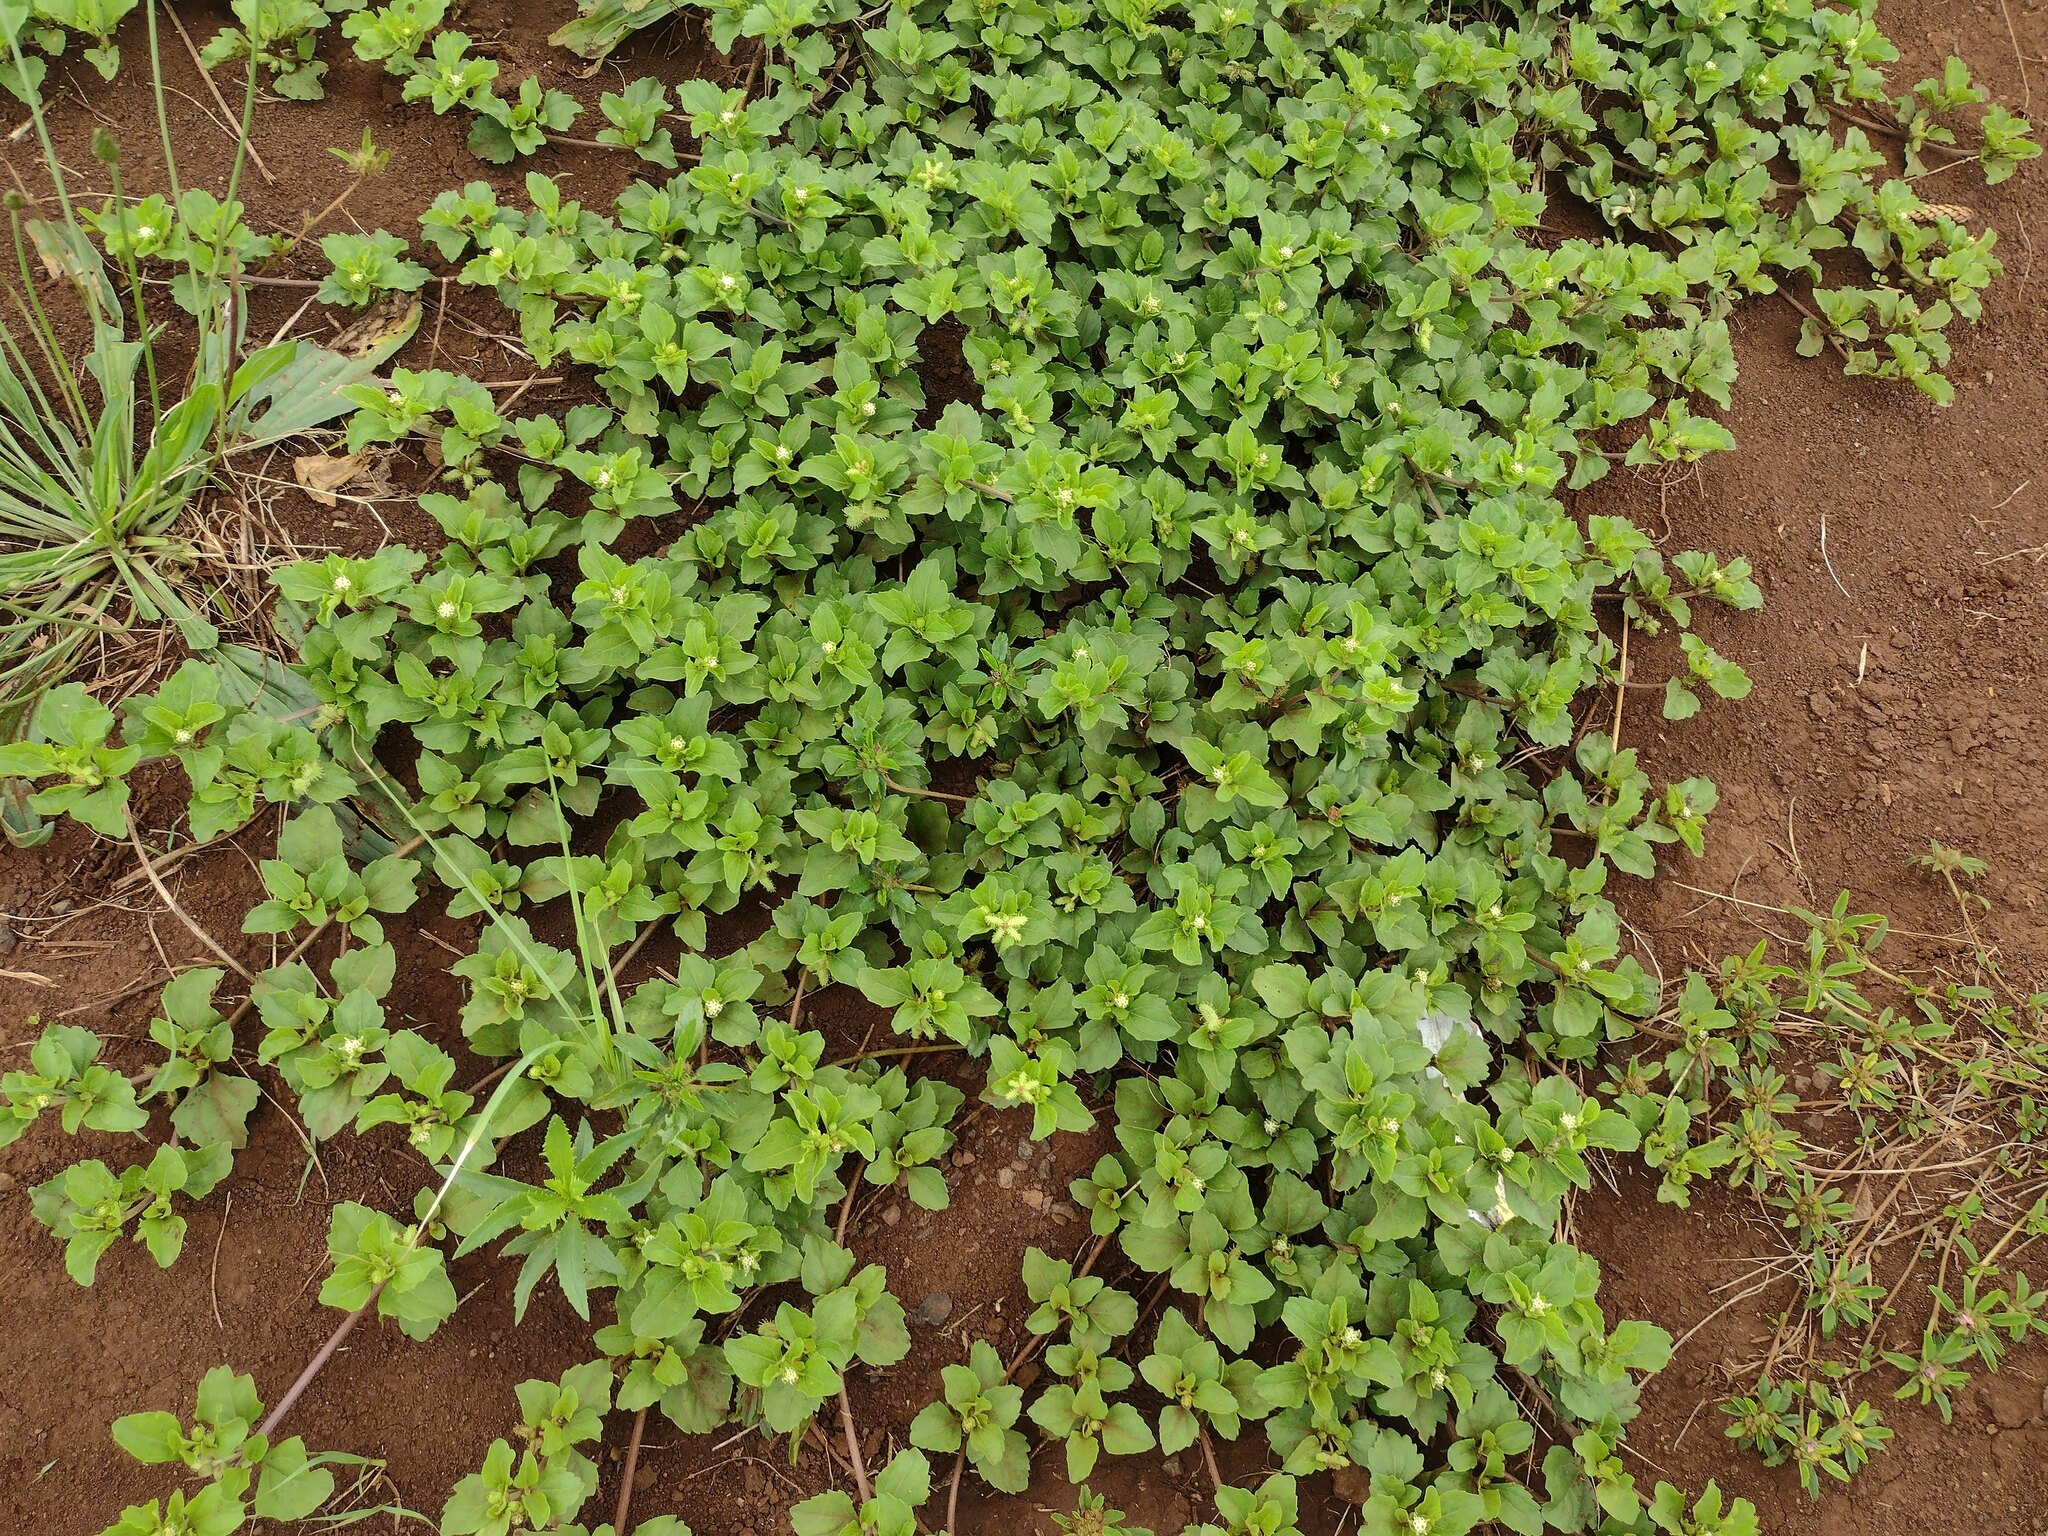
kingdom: Plantae
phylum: Tracheophyta
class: Magnoliopsida
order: Asterales
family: Asteraceae
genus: Acanthospermum
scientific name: Acanthospermum australe
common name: Paraguayan starbur
